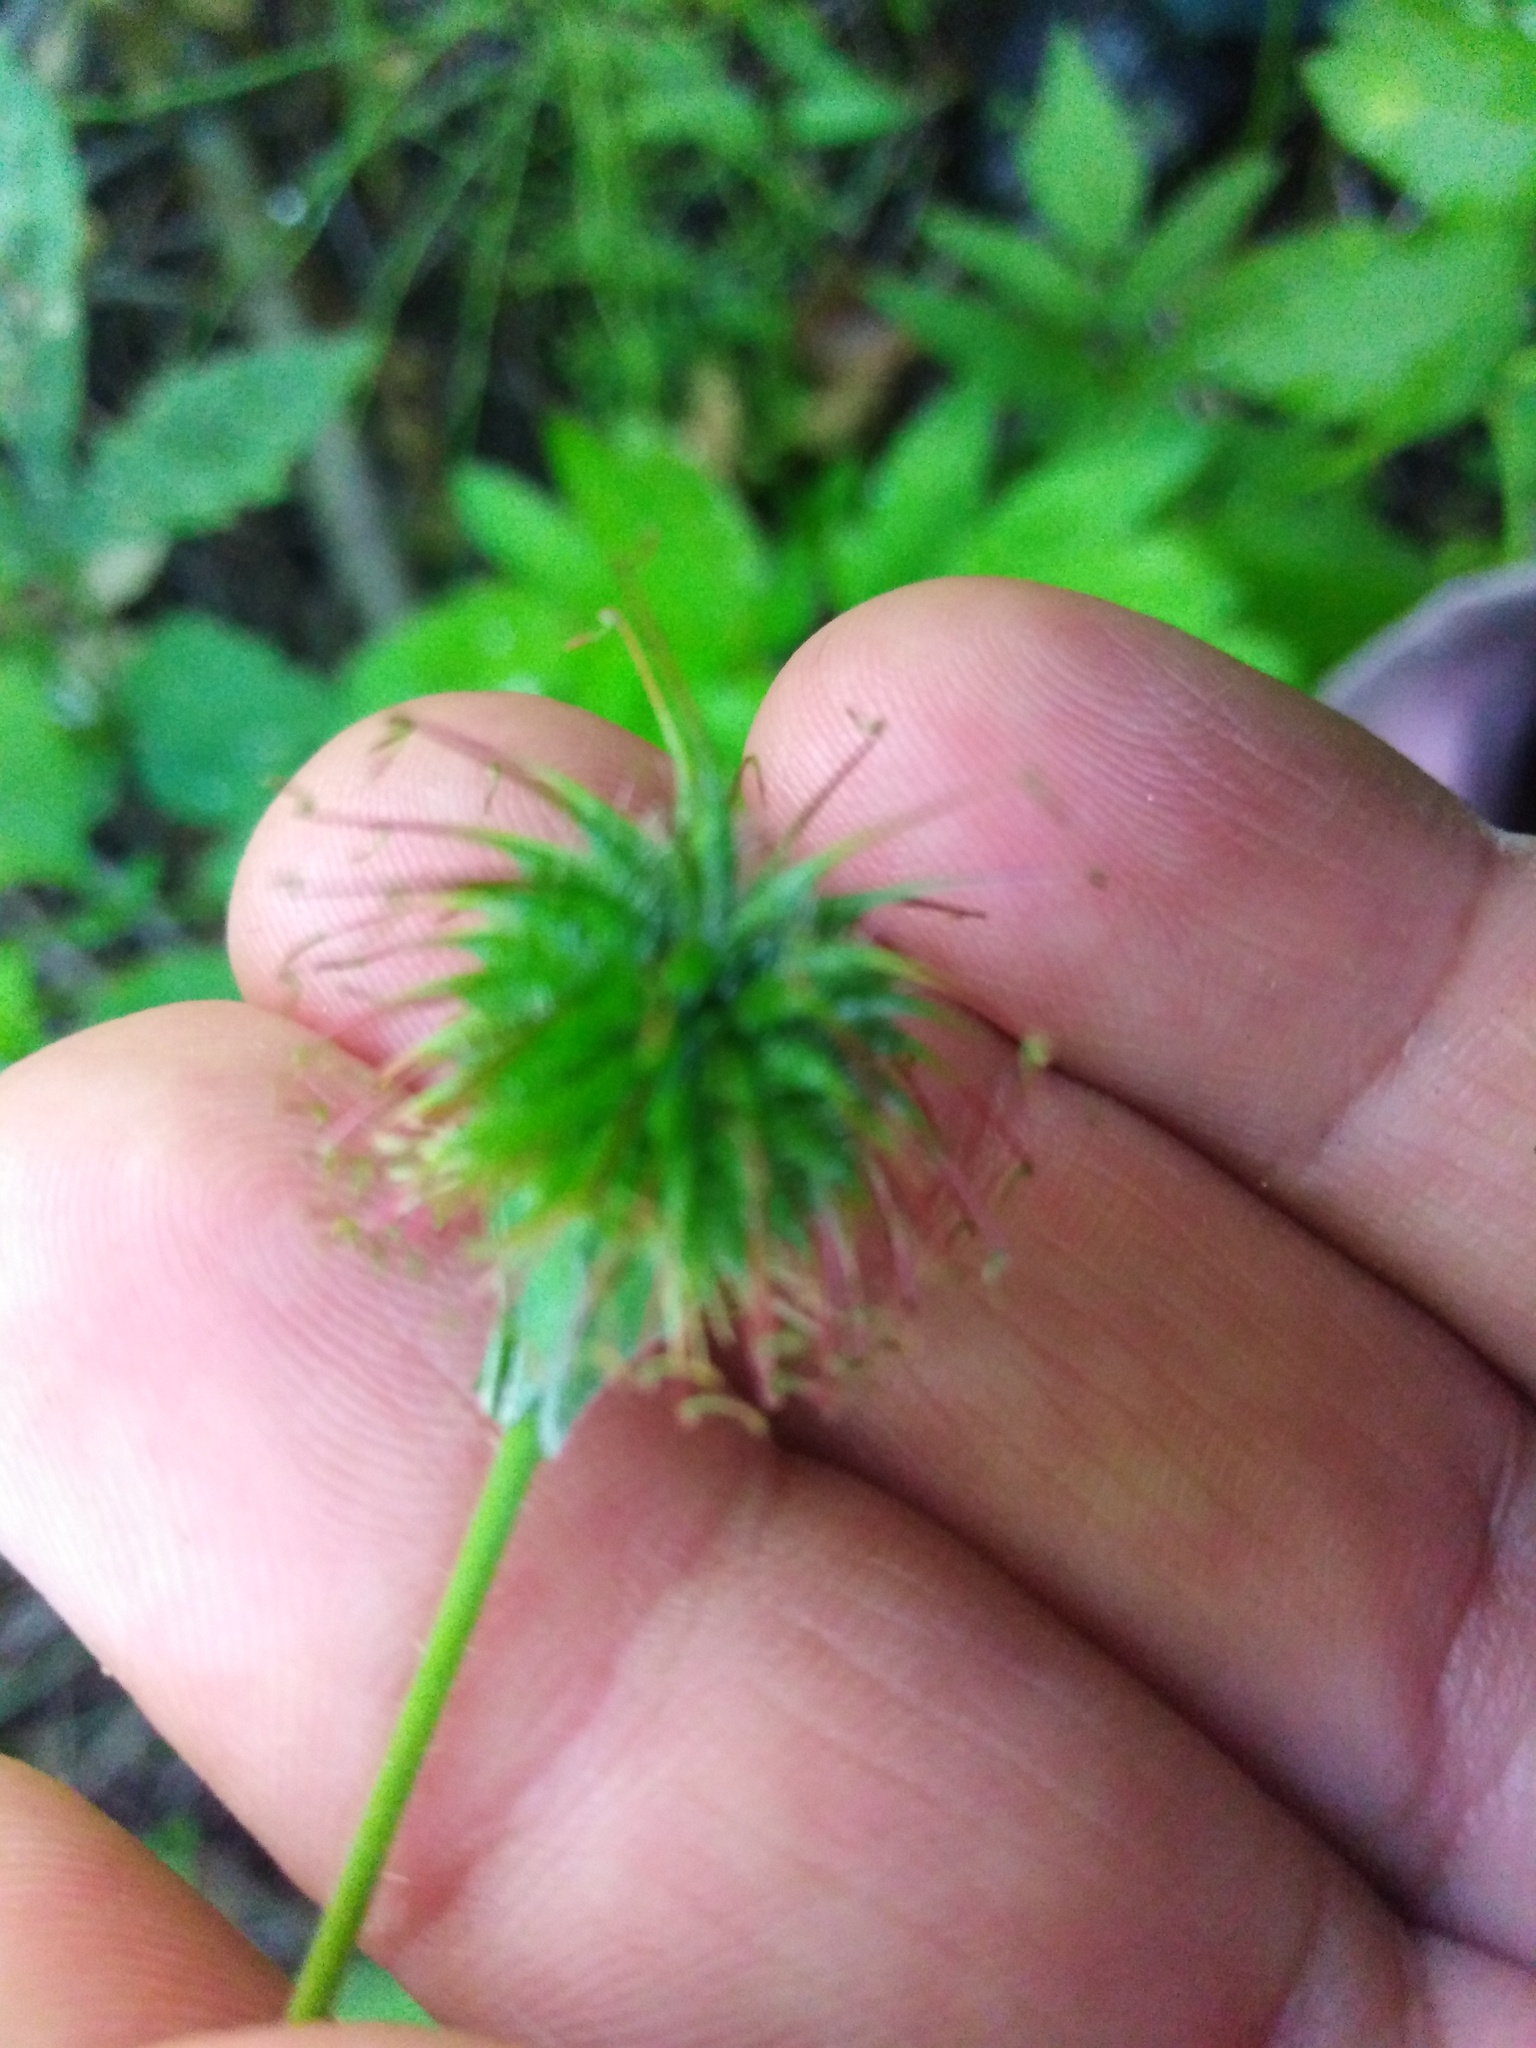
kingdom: Plantae
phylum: Tracheophyta
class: Magnoliopsida
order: Rosales
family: Rosaceae
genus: Geum
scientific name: Geum urbanum
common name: Wood avens
